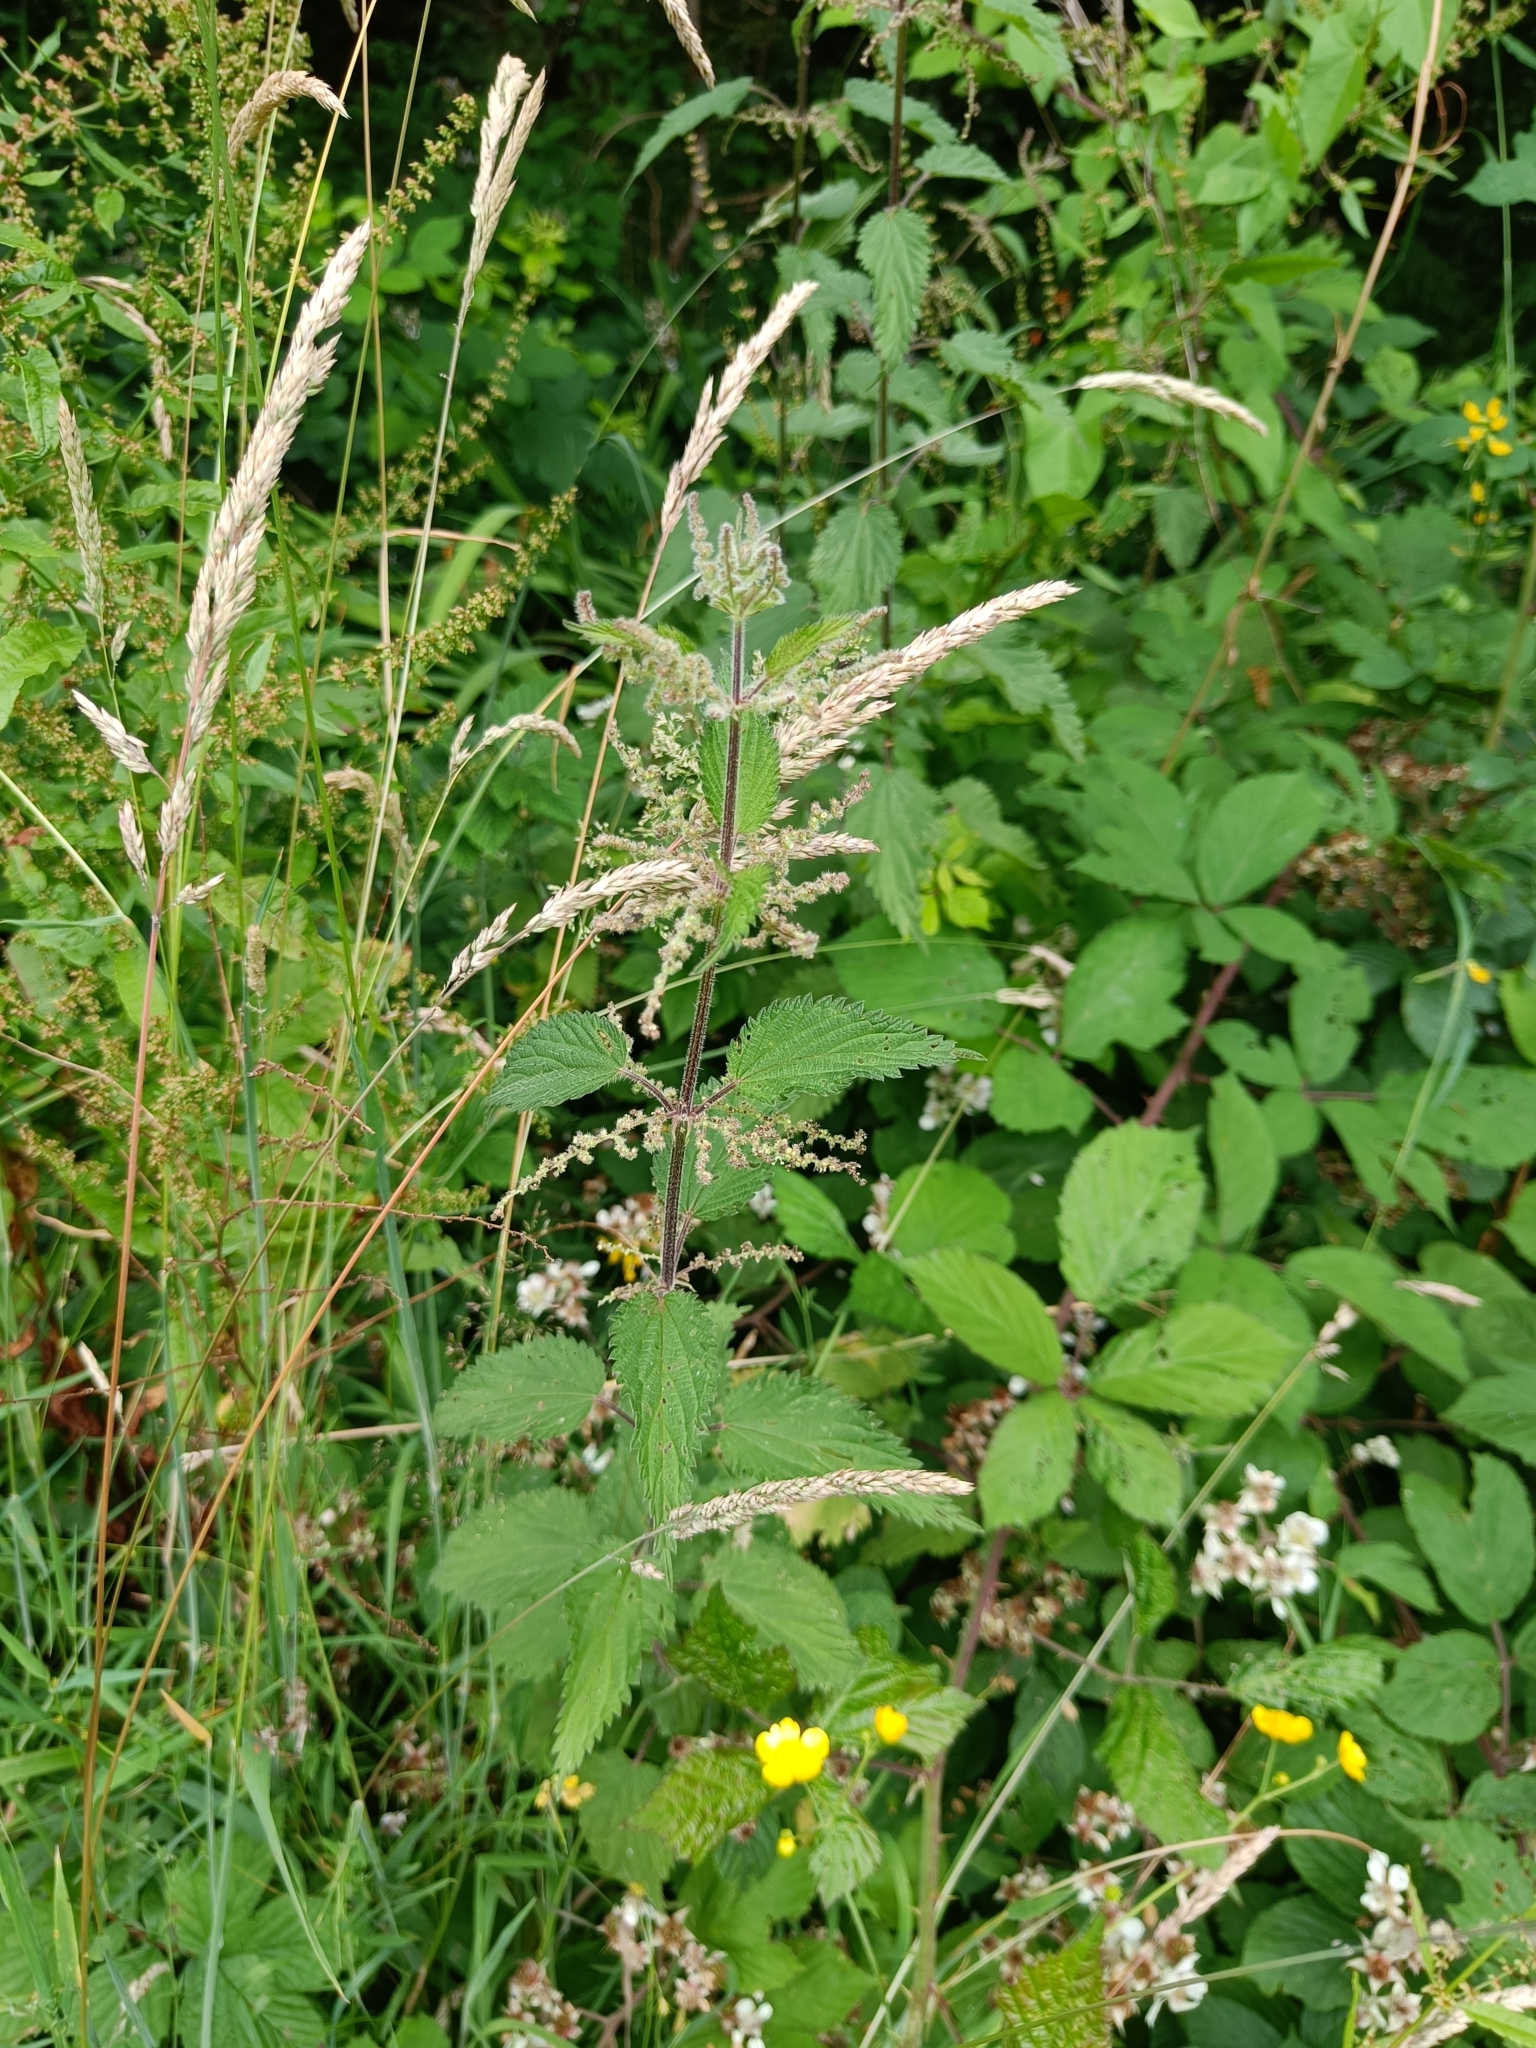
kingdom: Plantae
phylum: Tracheophyta
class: Magnoliopsida
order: Rosales
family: Urticaceae
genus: Urtica
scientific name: Urtica dioica
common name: Common nettle
